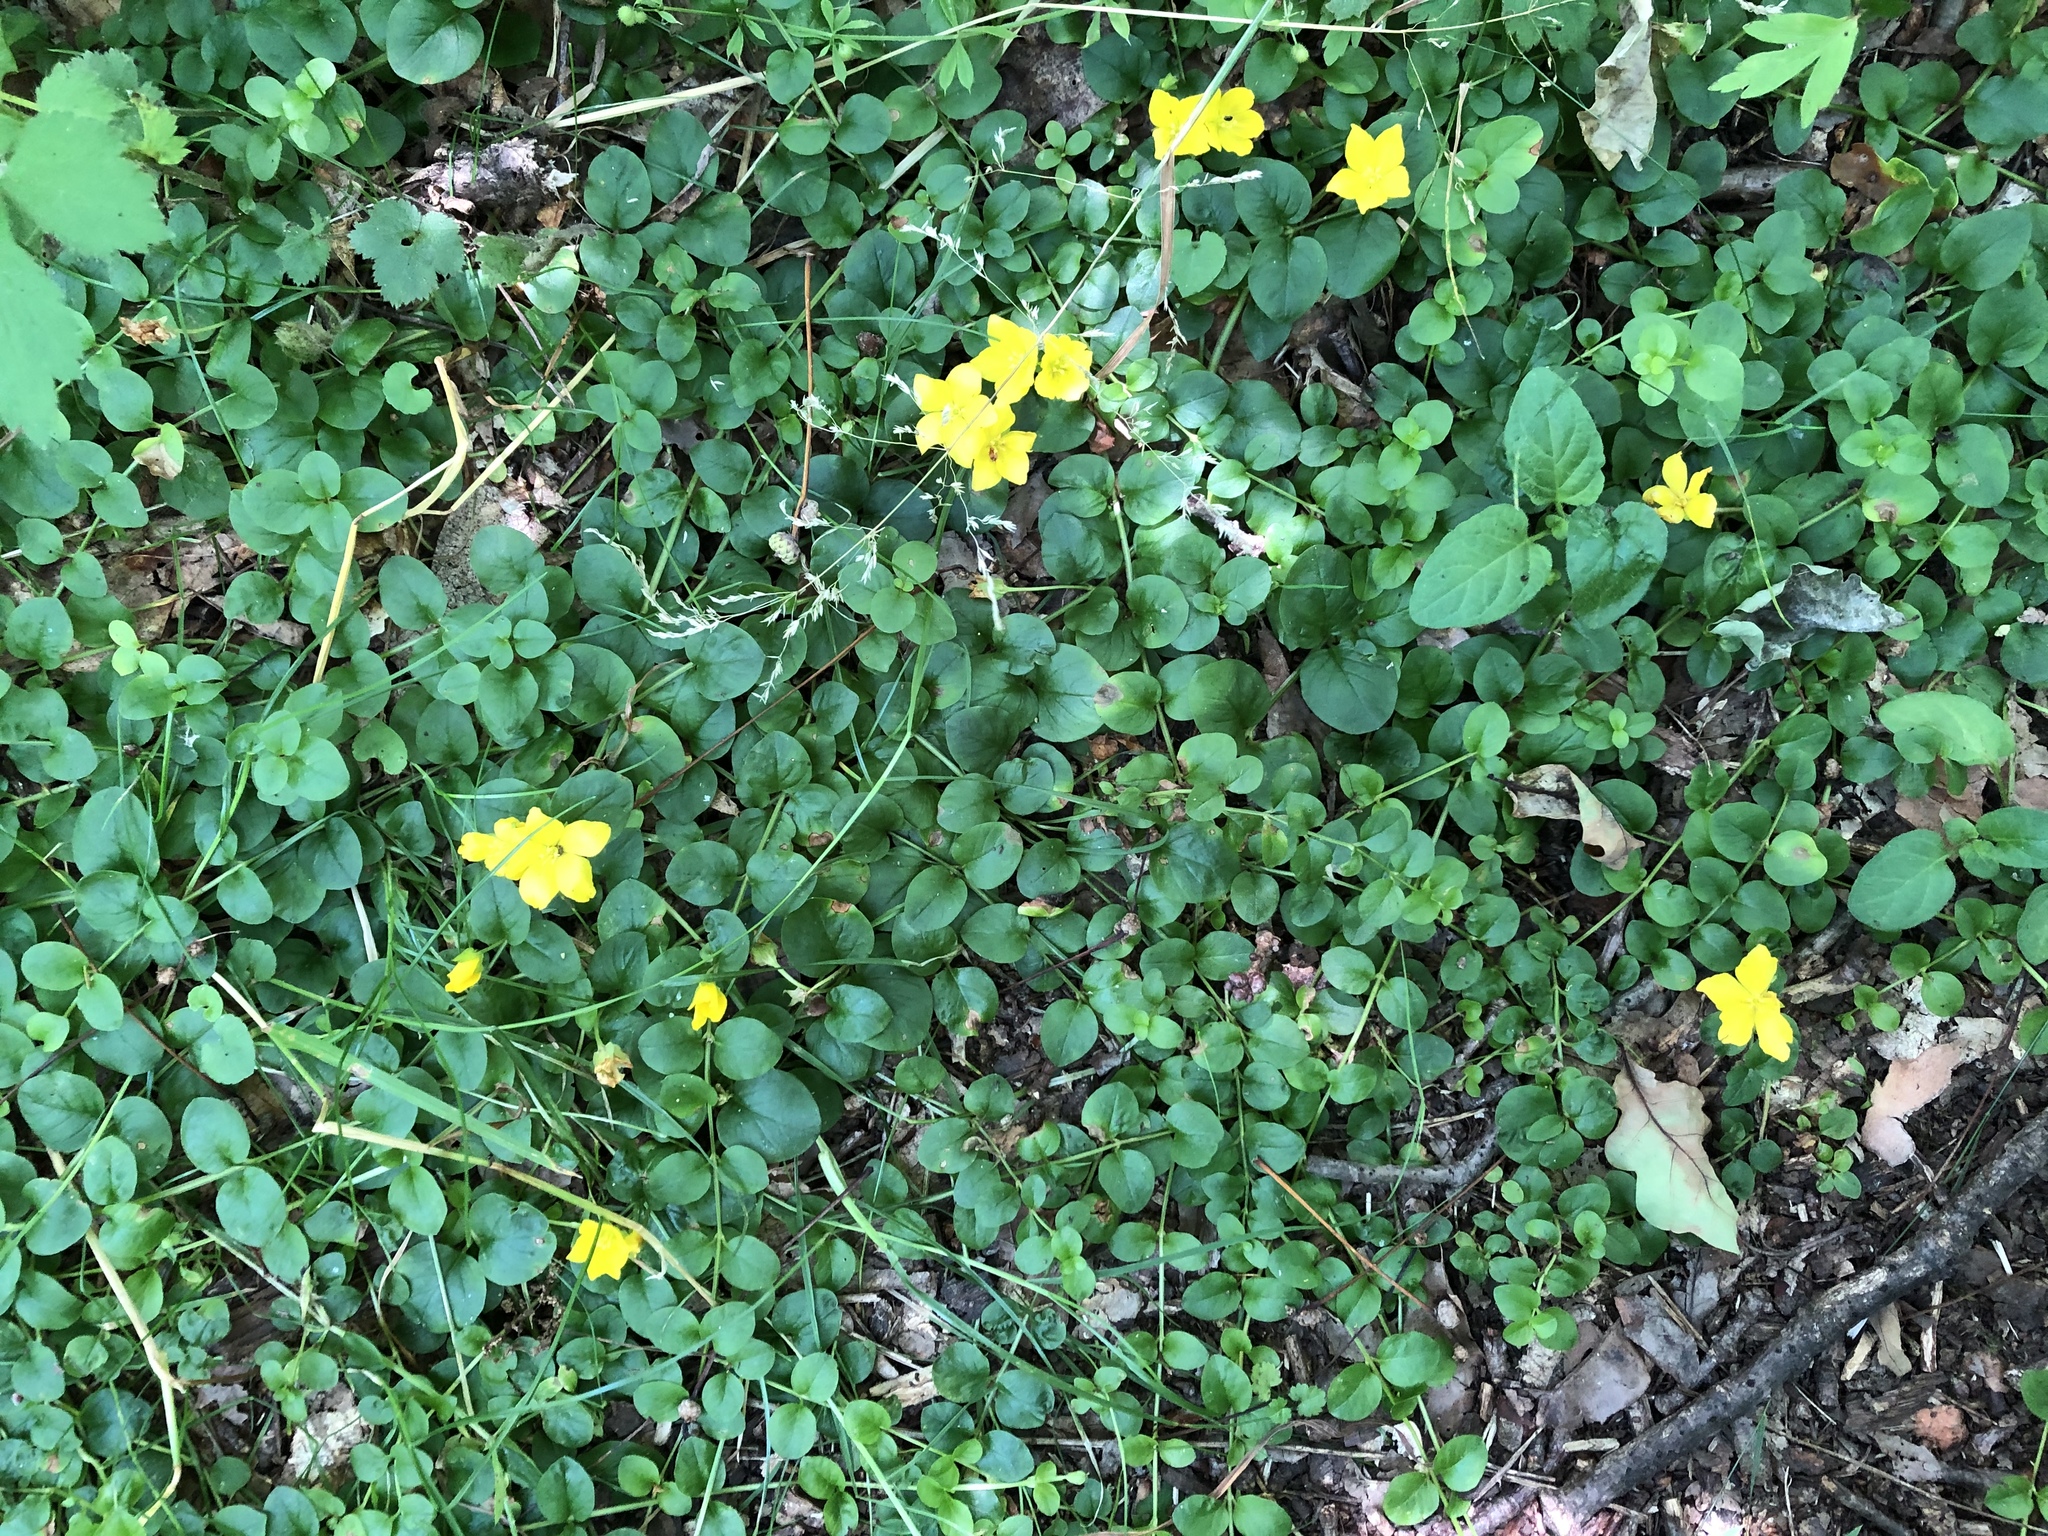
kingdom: Plantae
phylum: Tracheophyta
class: Magnoliopsida
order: Ericales
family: Primulaceae
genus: Lysimachia
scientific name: Lysimachia nummularia
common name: Moneywort
